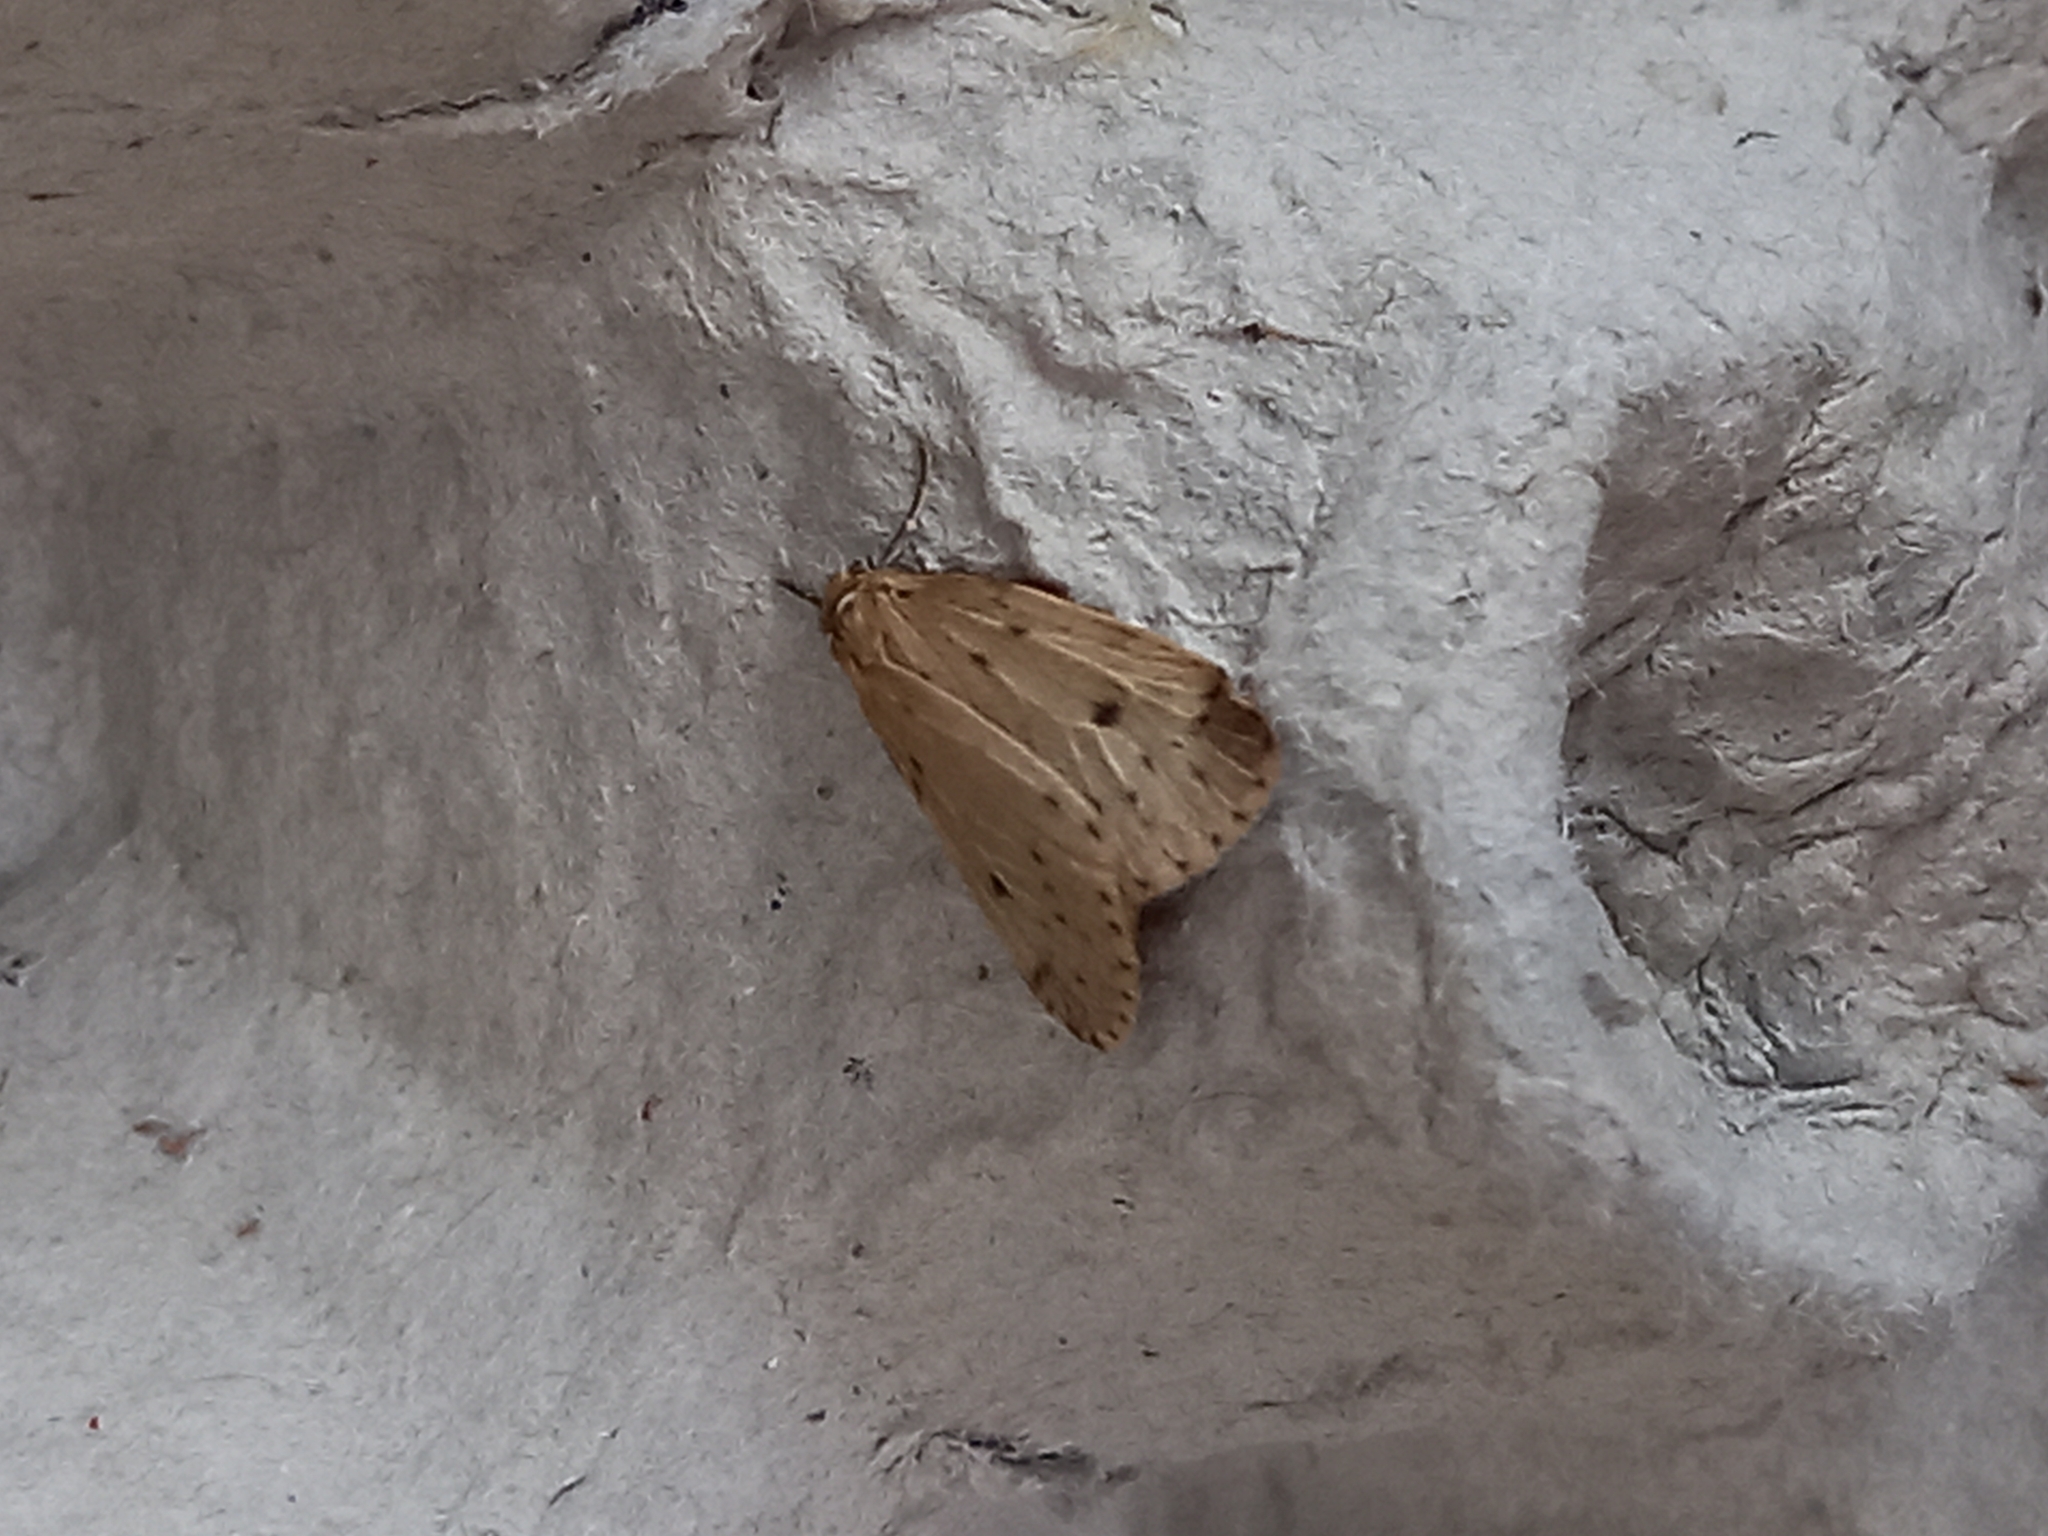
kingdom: Animalia
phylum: Arthropoda
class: Insecta
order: Lepidoptera
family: Erebidae
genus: Thumatha
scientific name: Thumatha senex
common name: Round-winged muslin
